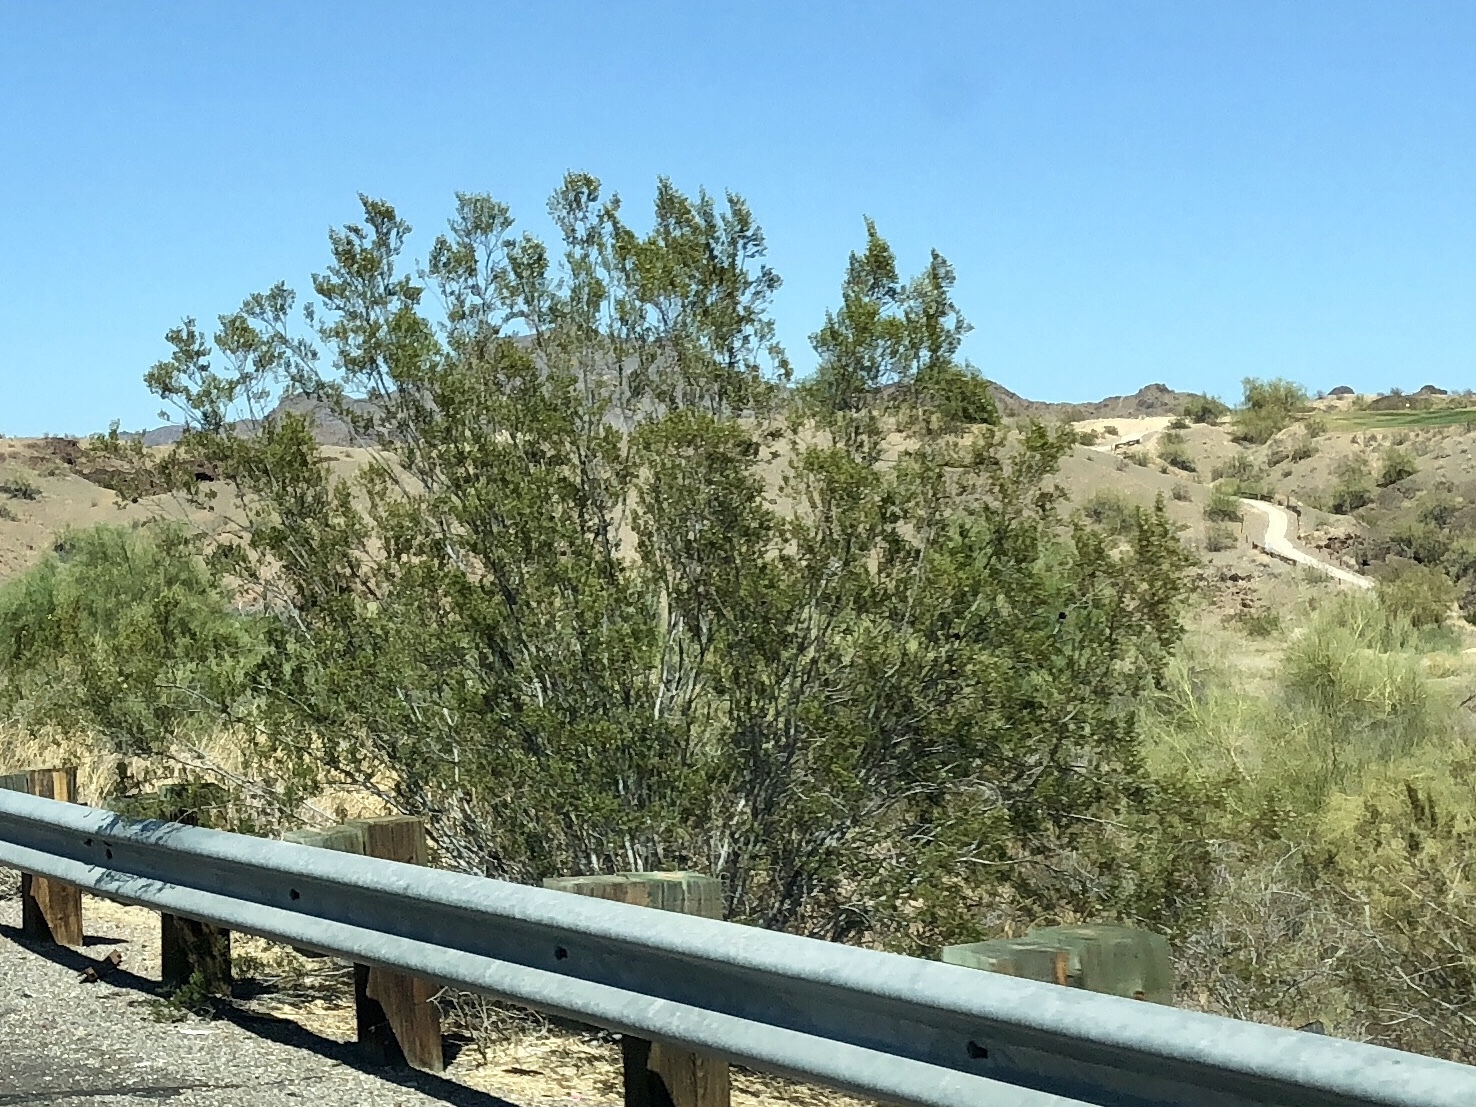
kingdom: Plantae
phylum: Tracheophyta
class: Magnoliopsida
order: Zygophyllales
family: Zygophyllaceae
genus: Larrea
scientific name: Larrea tridentata
